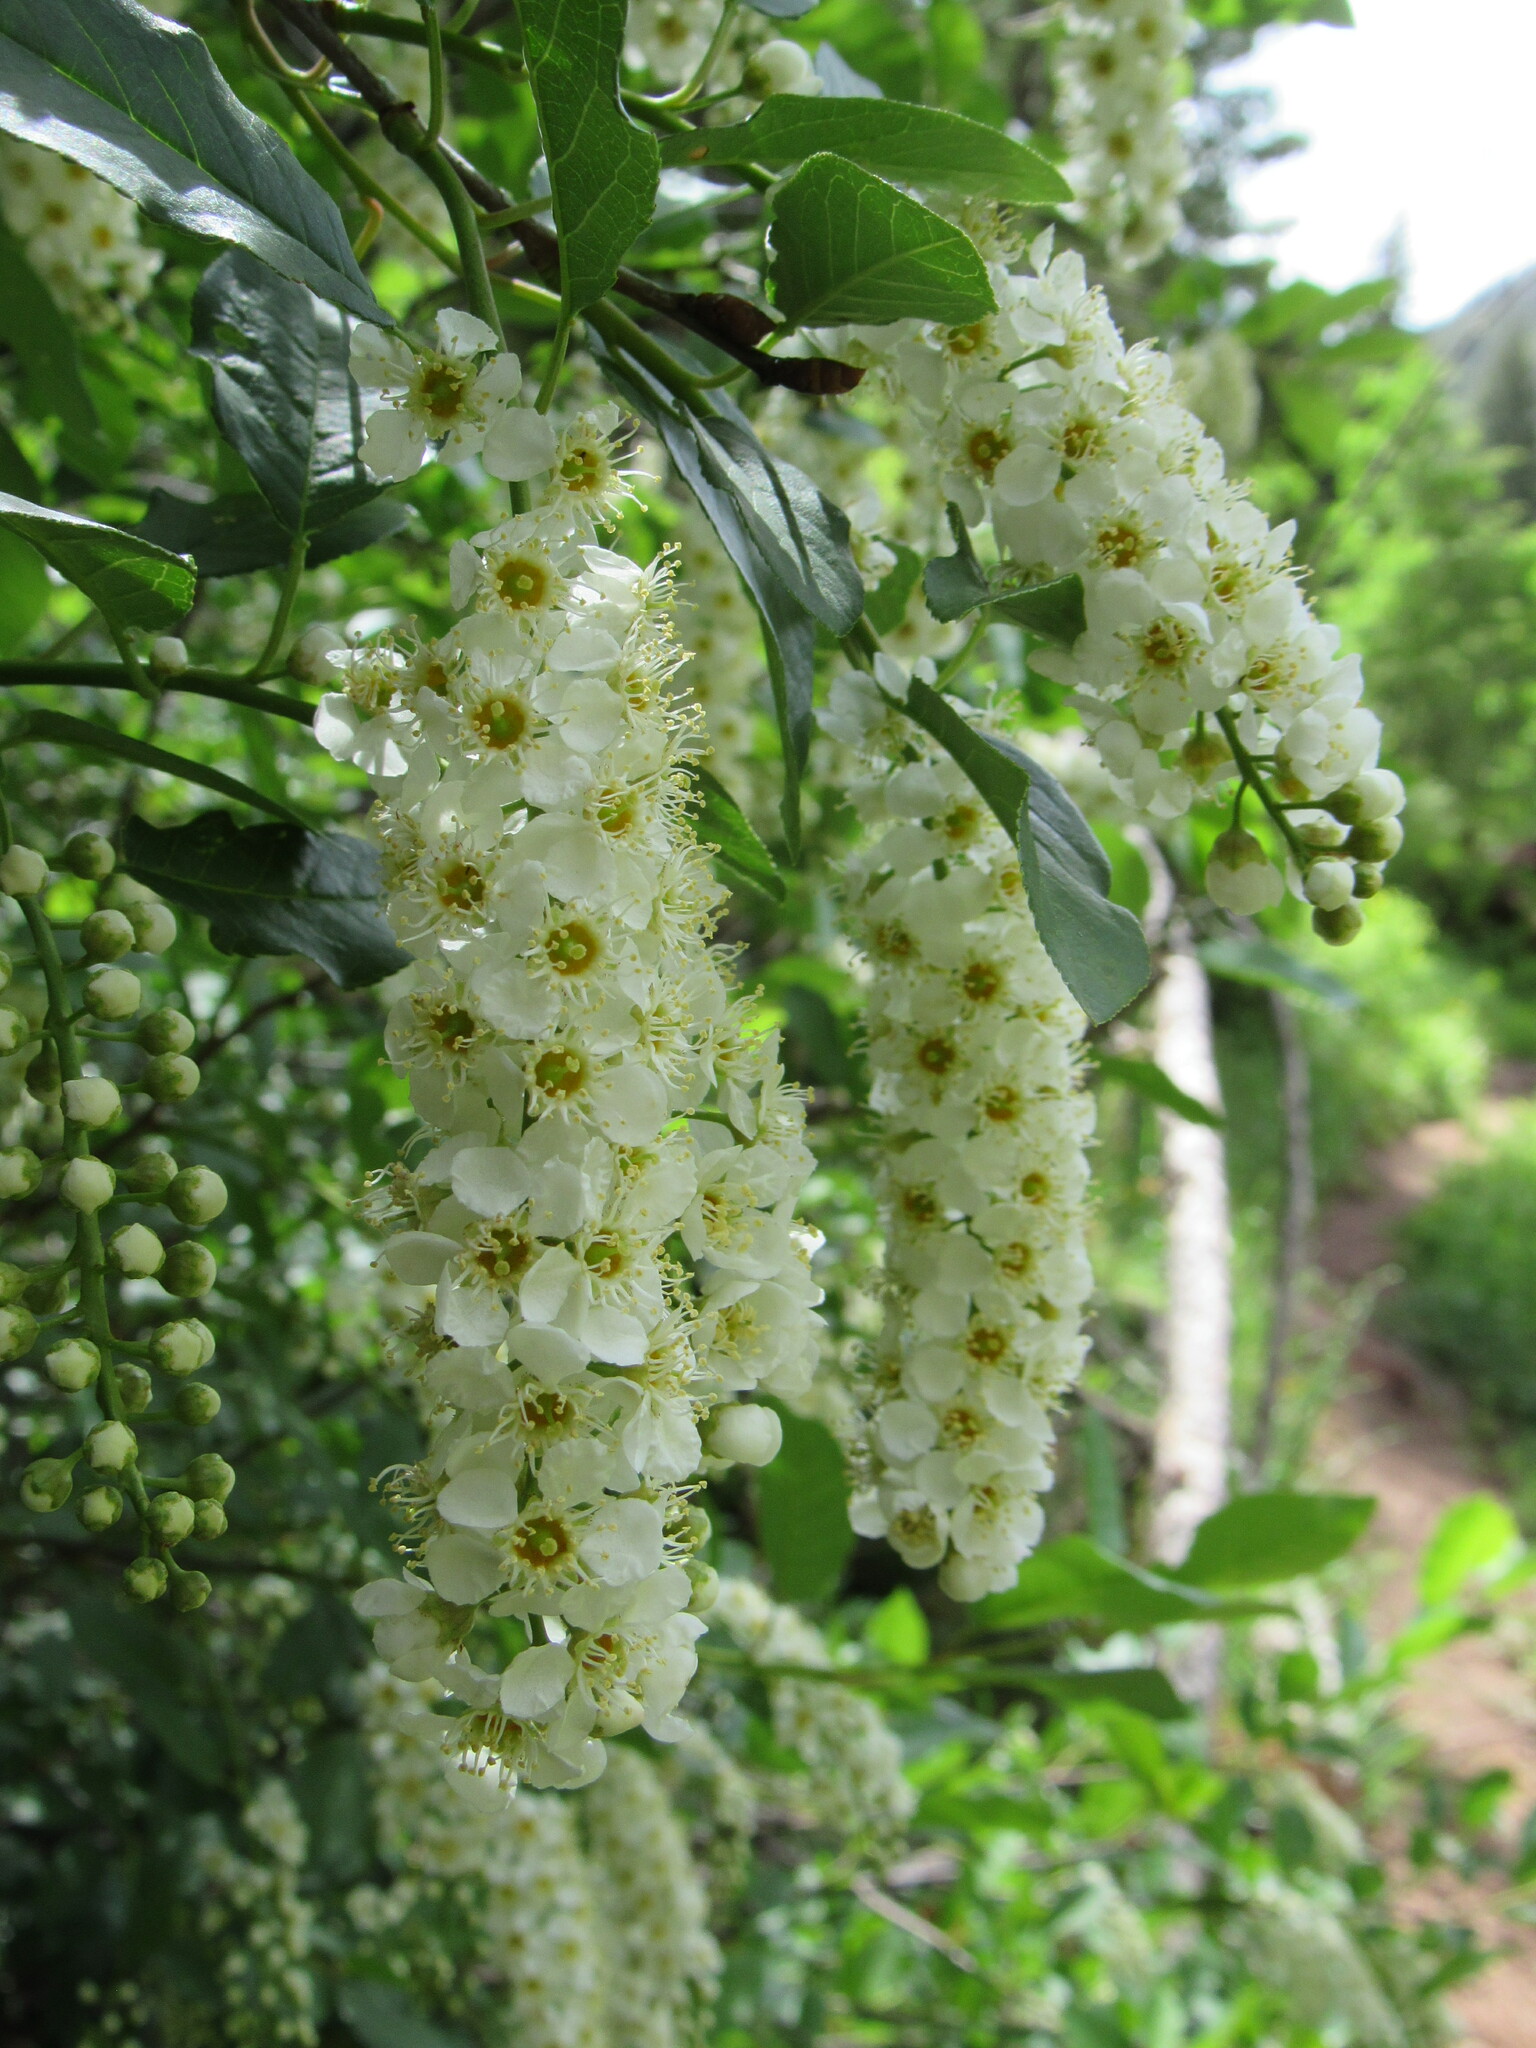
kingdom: Plantae
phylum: Tracheophyta
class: Magnoliopsida
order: Rosales
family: Rosaceae
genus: Prunus
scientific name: Prunus virginiana
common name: Chokecherry
